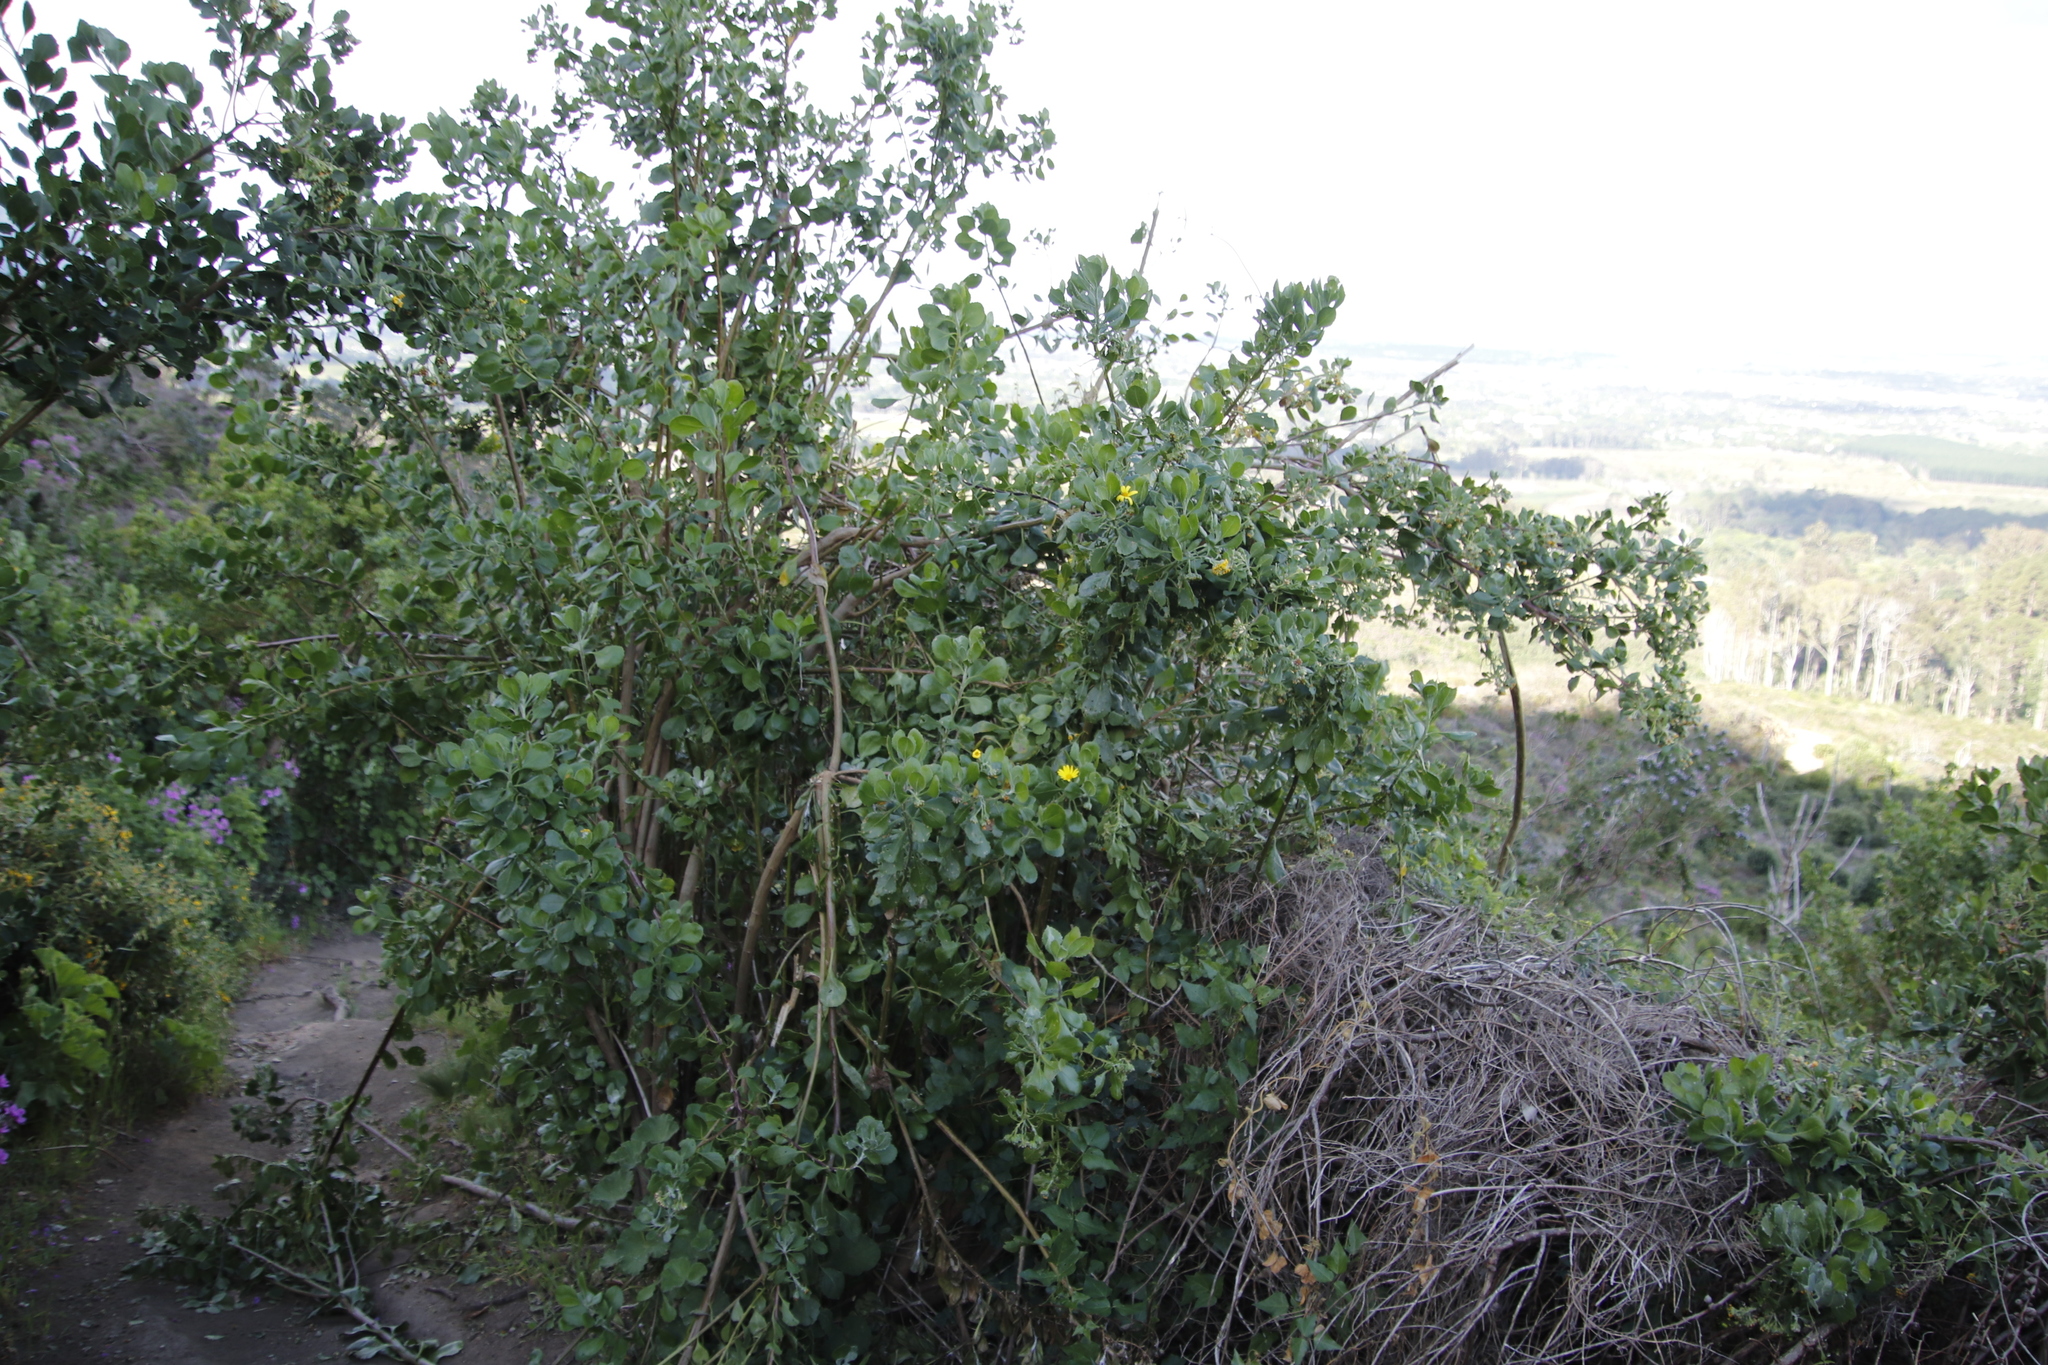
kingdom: Plantae
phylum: Tracheophyta
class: Magnoliopsida
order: Asterales
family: Asteraceae
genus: Osteospermum
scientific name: Osteospermum moniliferum
